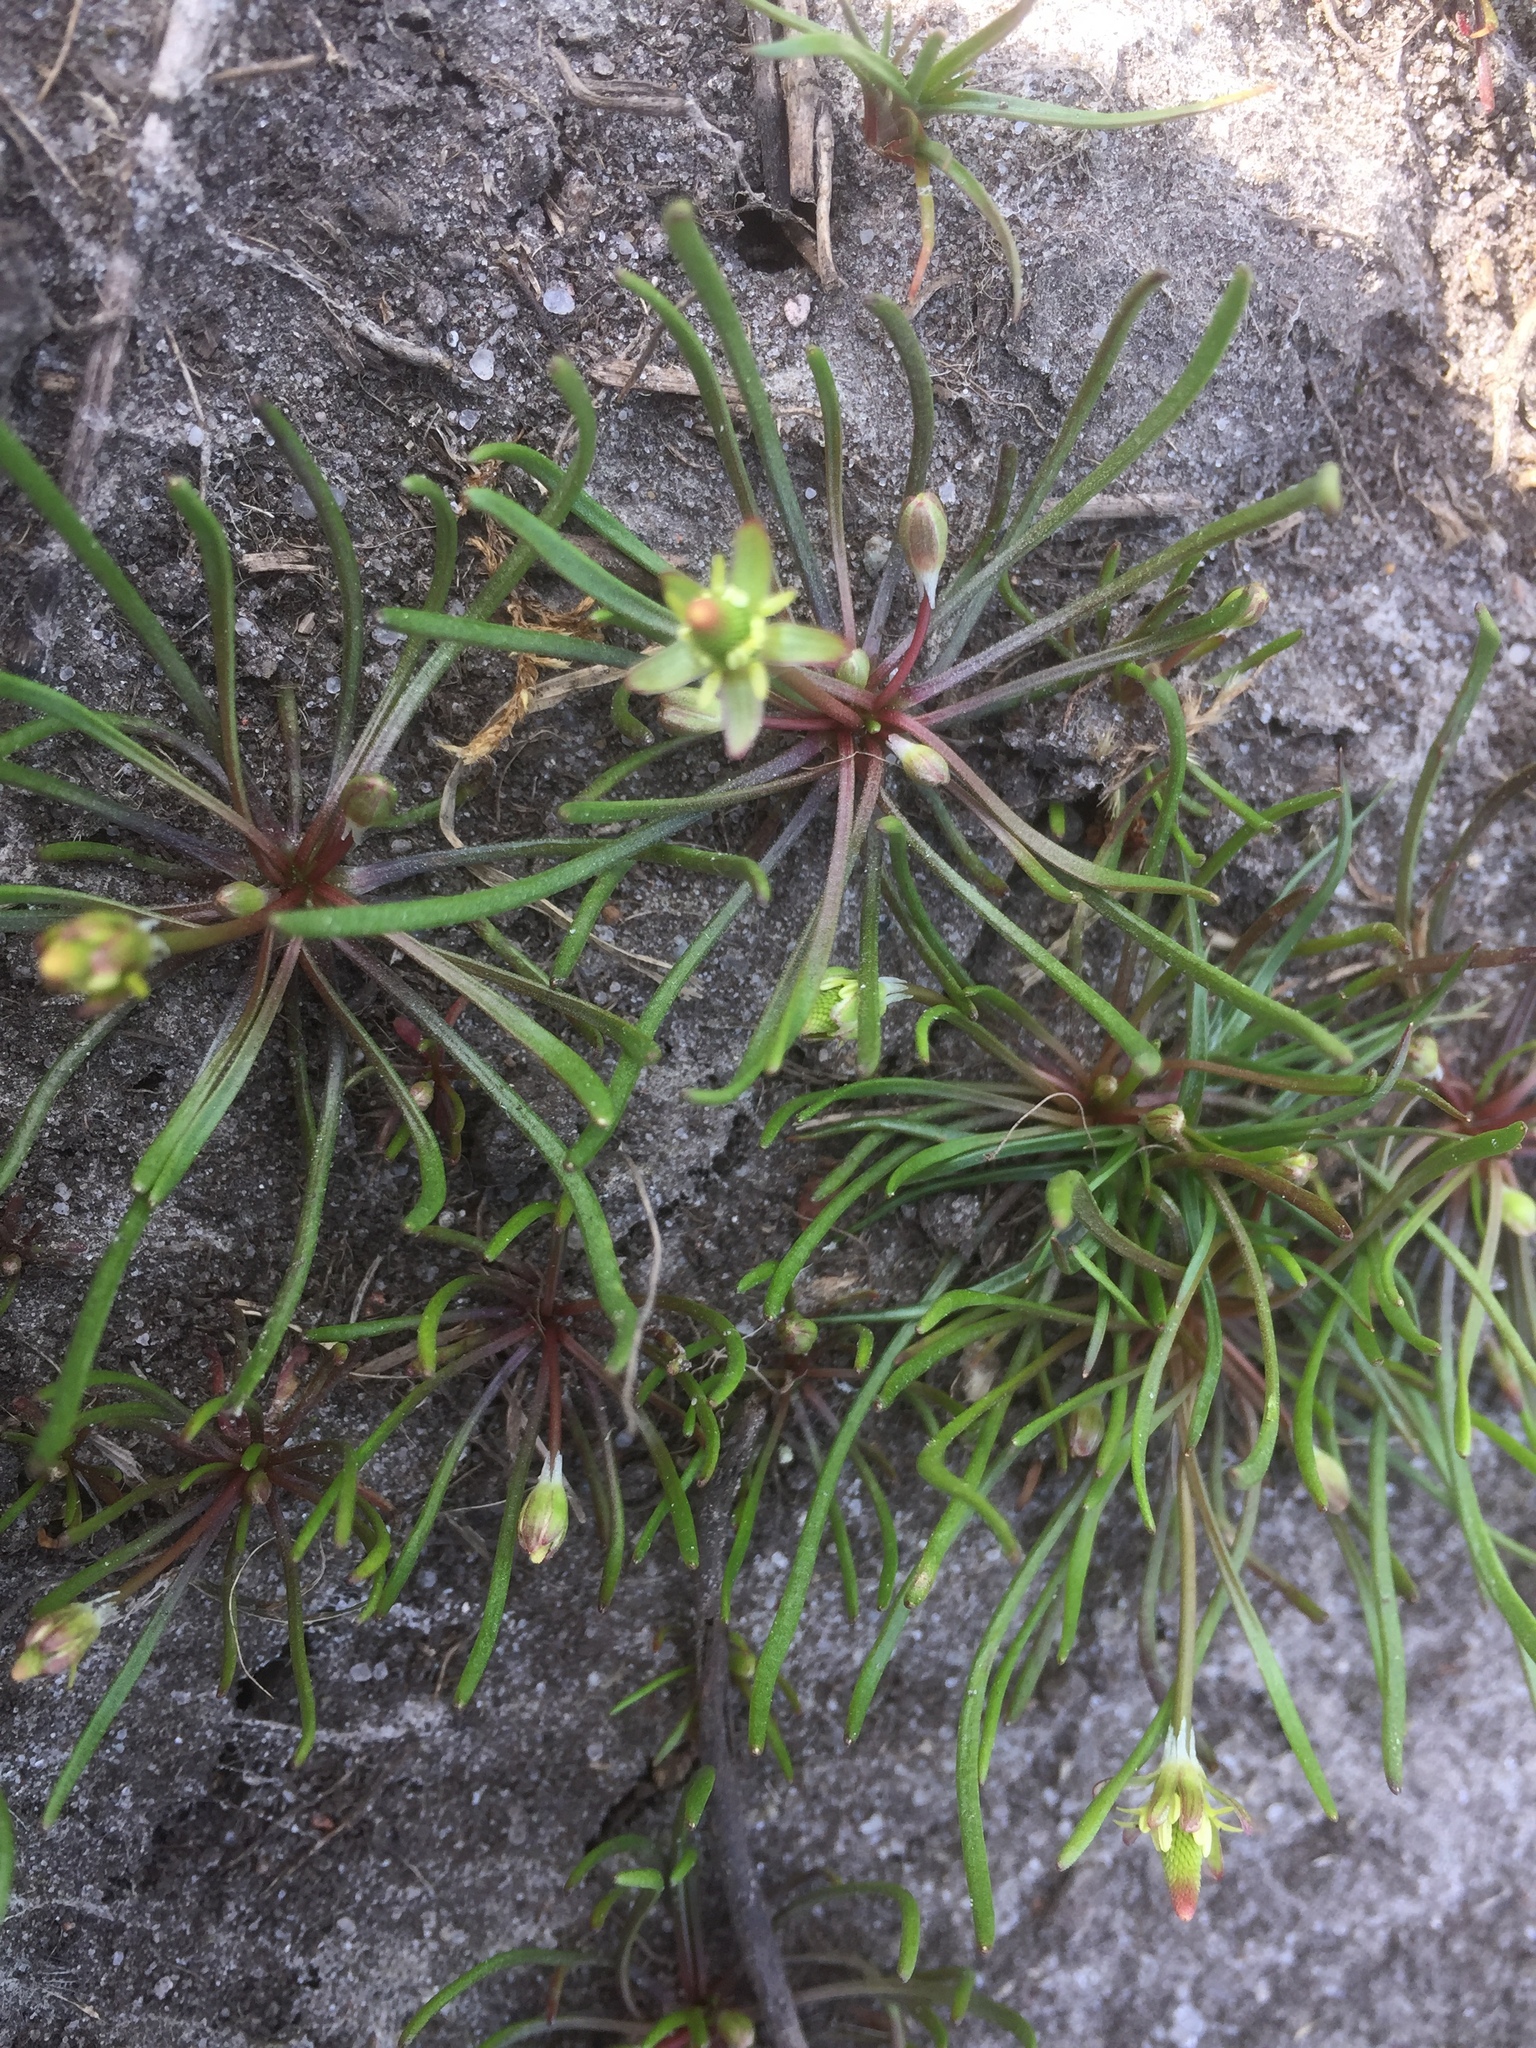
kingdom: Plantae
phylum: Tracheophyta
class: Magnoliopsida
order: Ranunculales
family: Ranunculaceae
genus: Myosurus
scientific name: Myosurus minimus
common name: Mousetail
